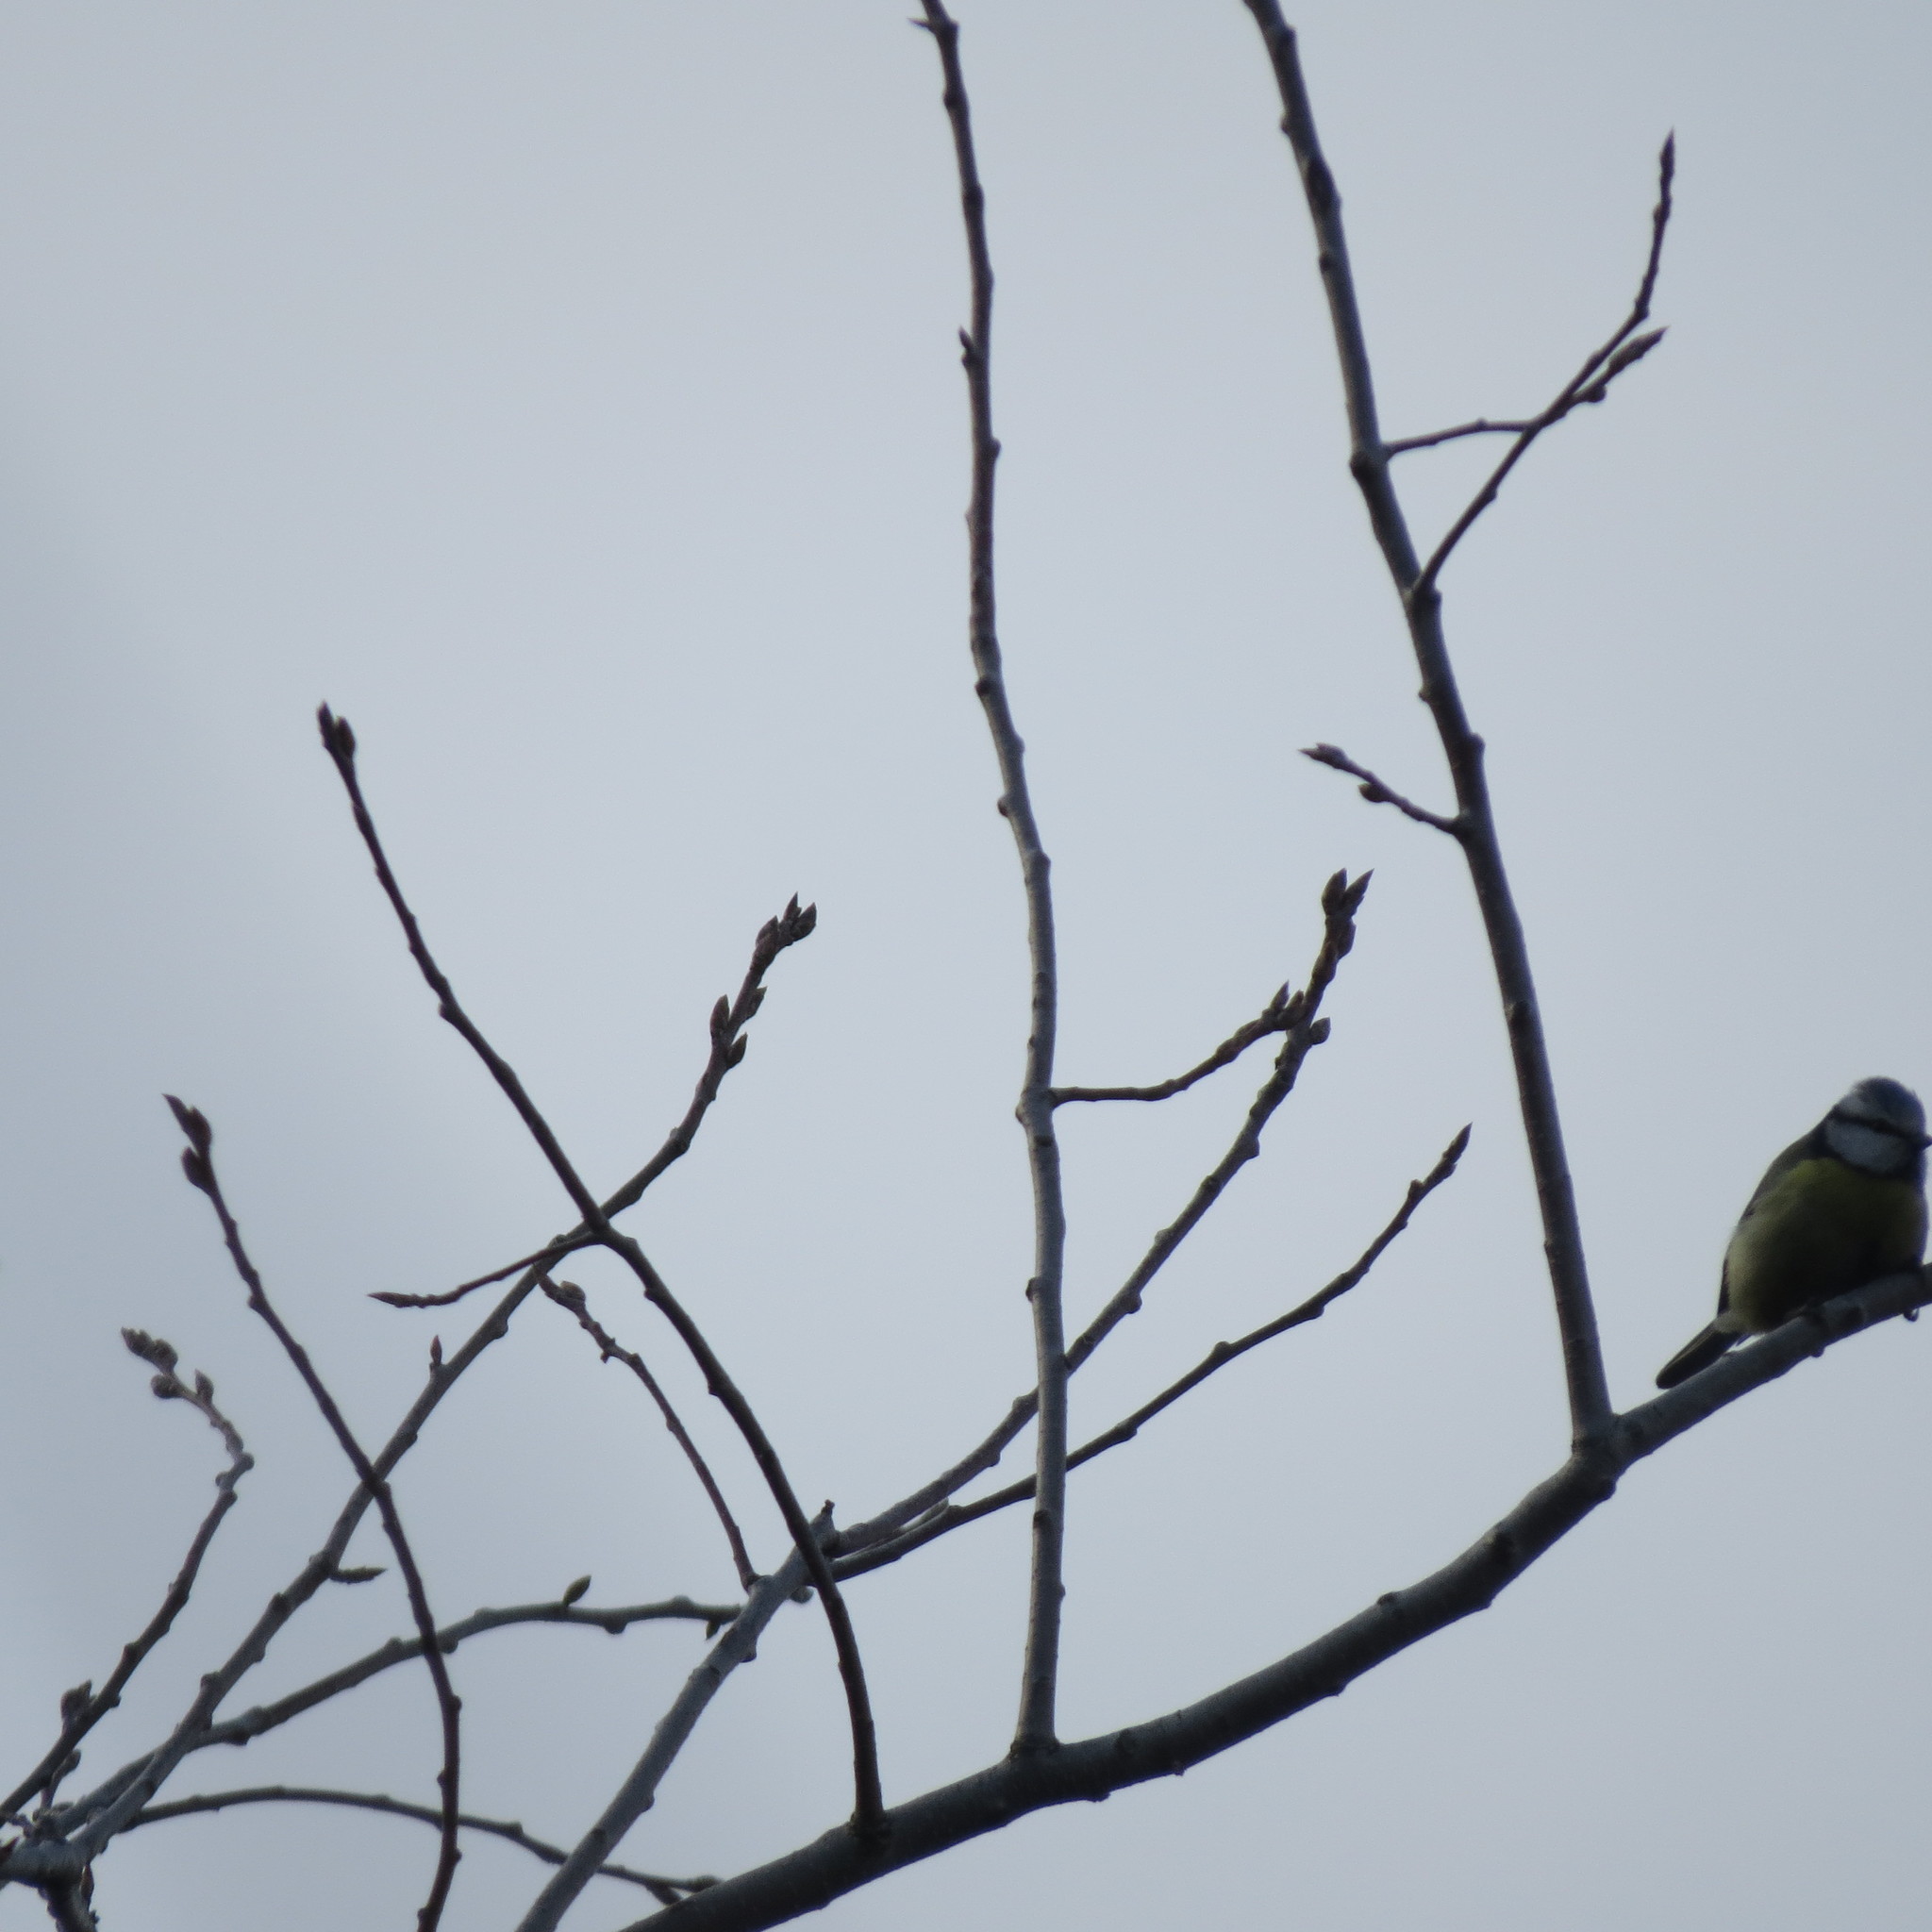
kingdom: Animalia
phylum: Chordata
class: Aves
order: Passeriformes
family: Paridae
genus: Cyanistes
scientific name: Cyanistes caeruleus
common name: Eurasian blue tit
